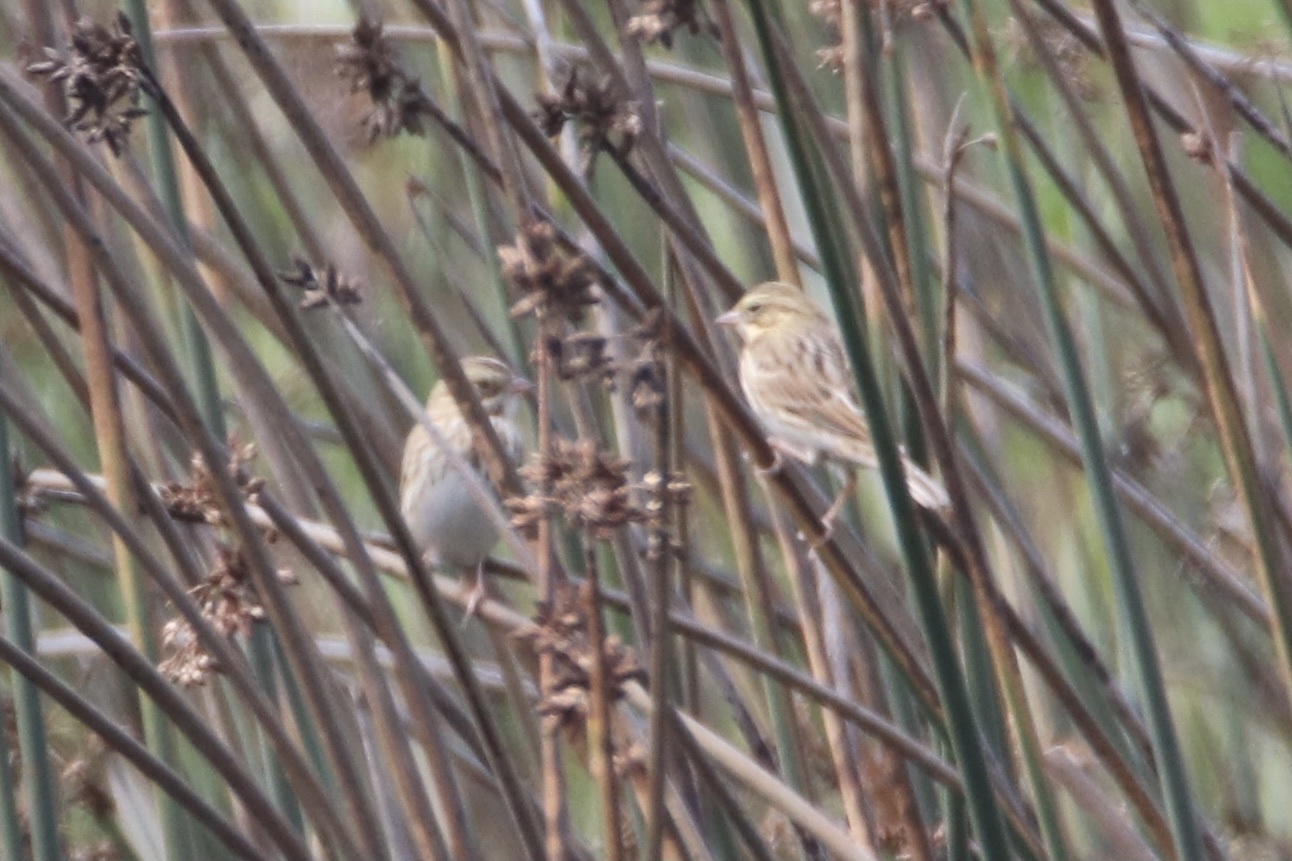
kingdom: Animalia
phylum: Chordata
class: Aves
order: Passeriformes
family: Passerellidae
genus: Passerculus
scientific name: Passerculus sandwichensis
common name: Savannah sparrow
